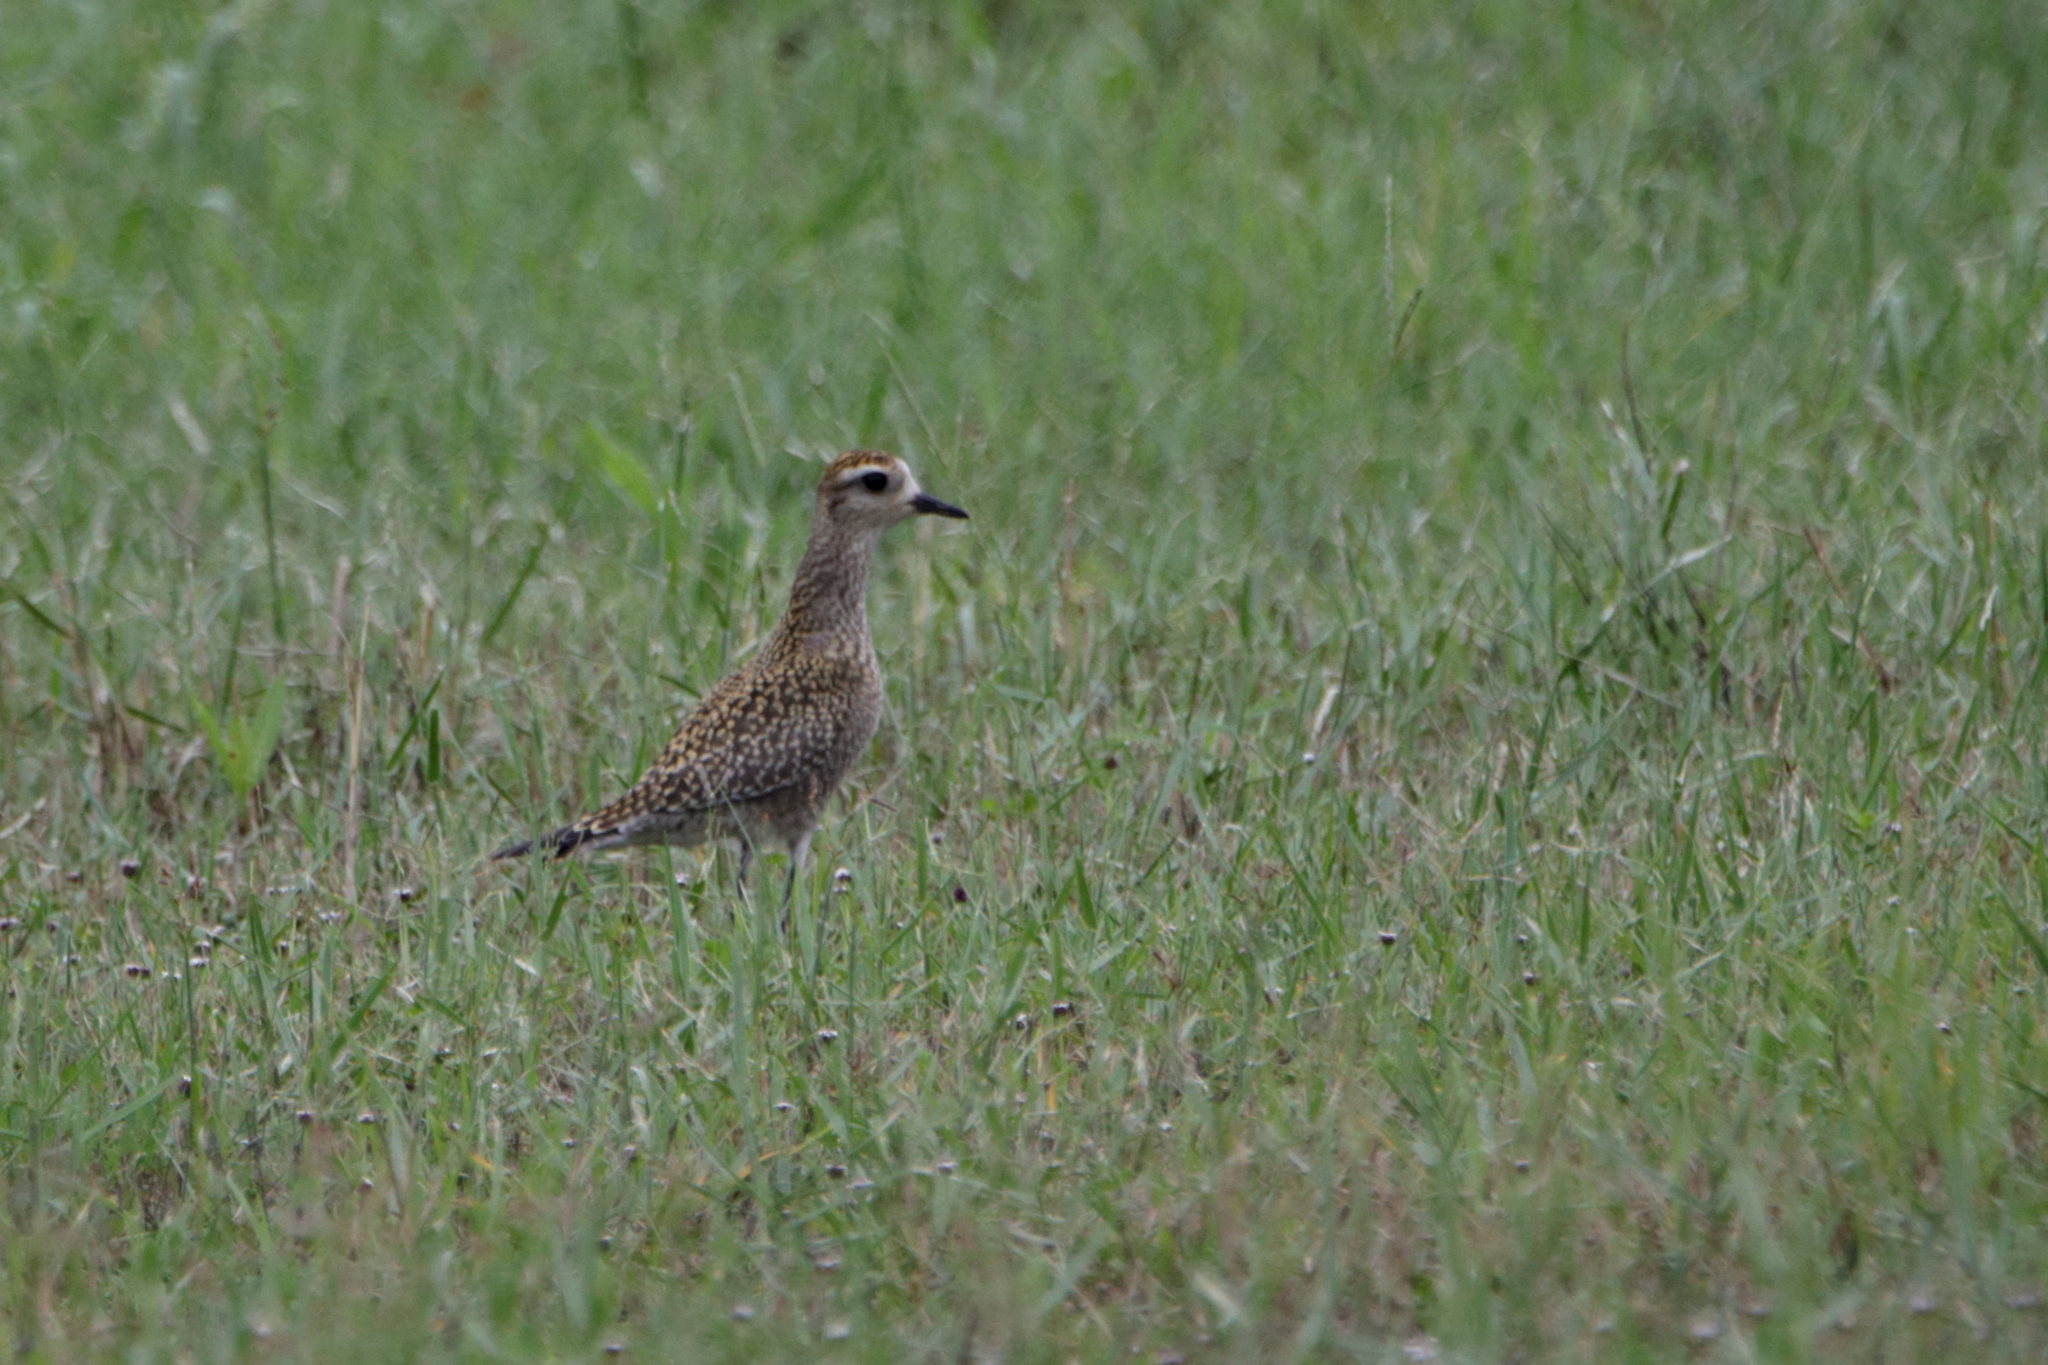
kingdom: Animalia
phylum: Chordata
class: Aves
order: Charadriiformes
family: Charadriidae
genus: Pluvialis
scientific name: Pluvialis dominica
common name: American golden plover
